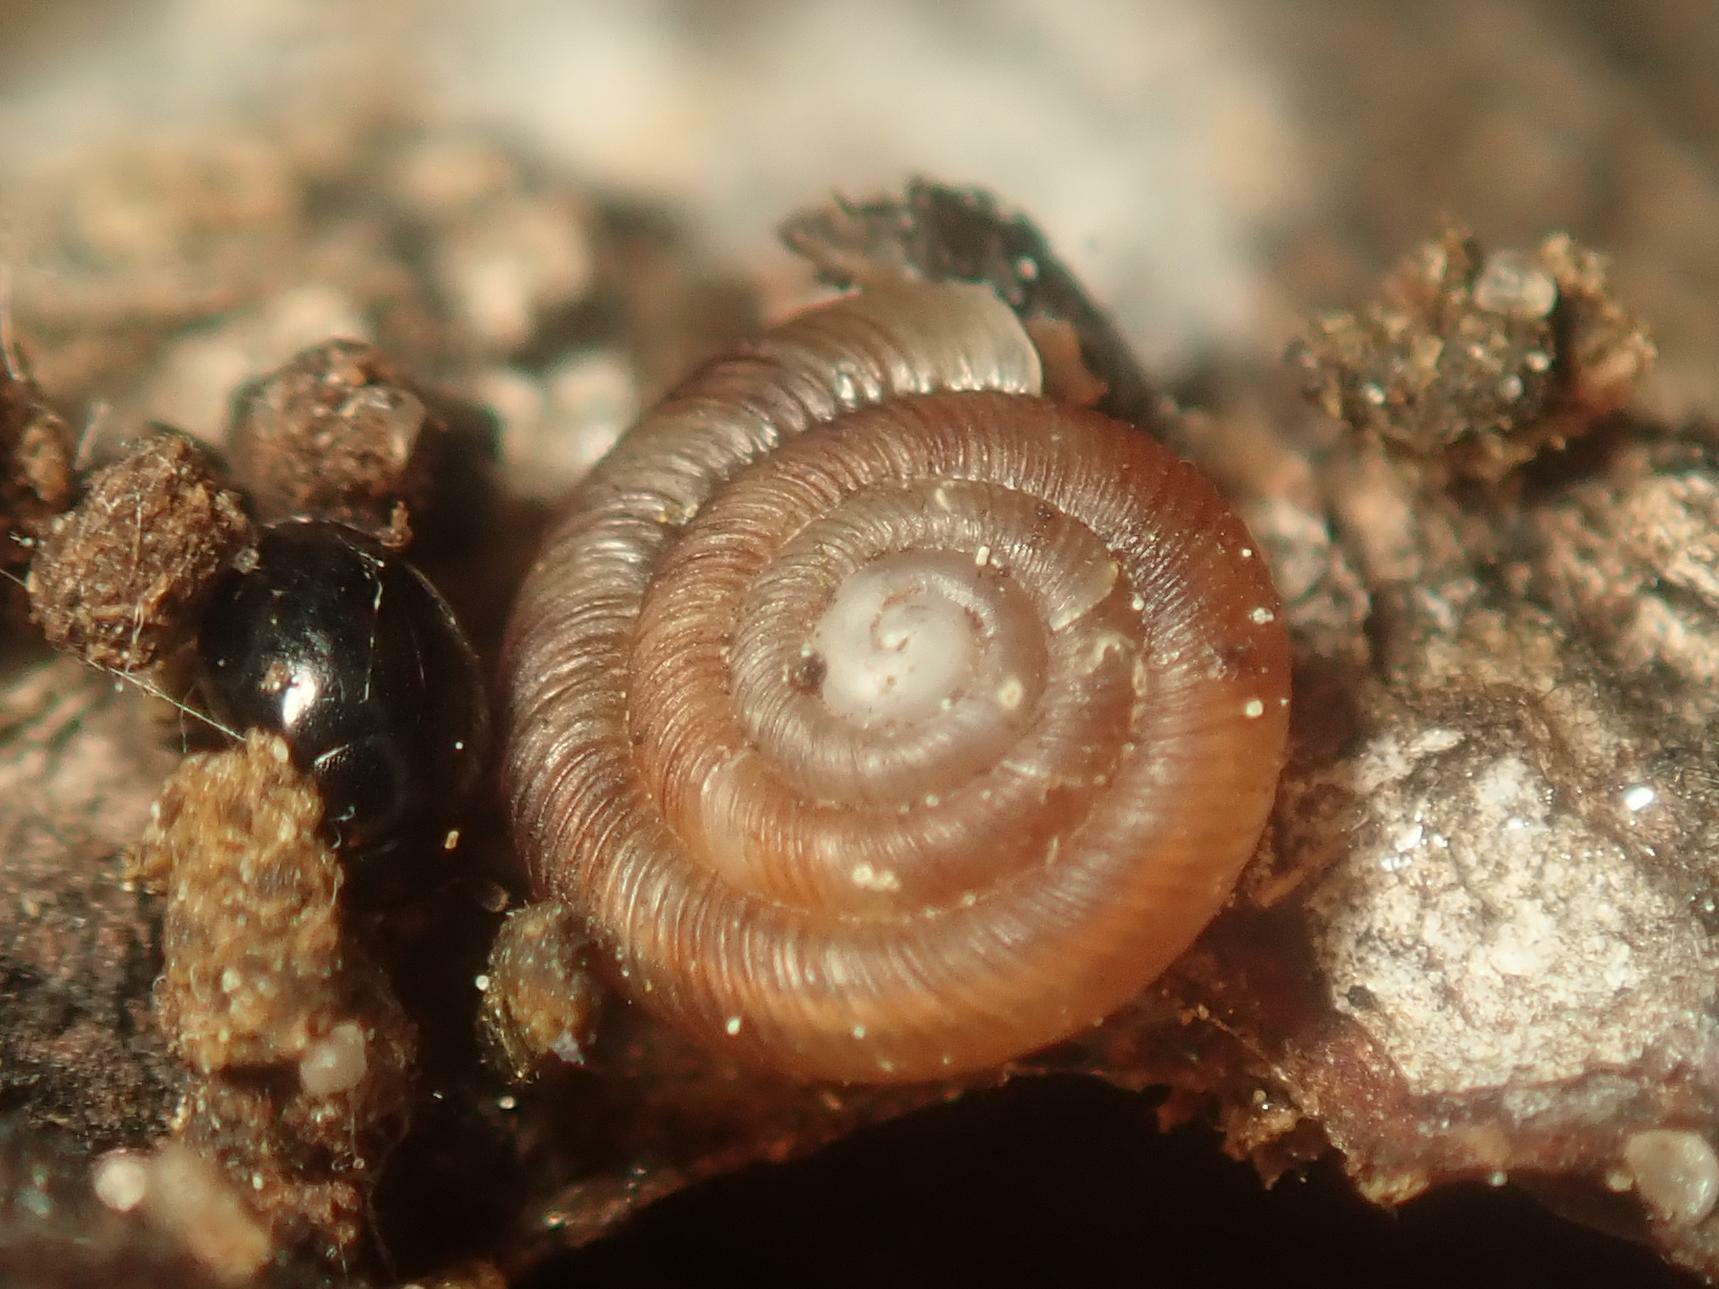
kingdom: Animalia
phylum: Mollusca
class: Gastropoda
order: Stylommatophora
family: Discidae
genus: Discus
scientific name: Discus rotundatus
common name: Rounded snail
